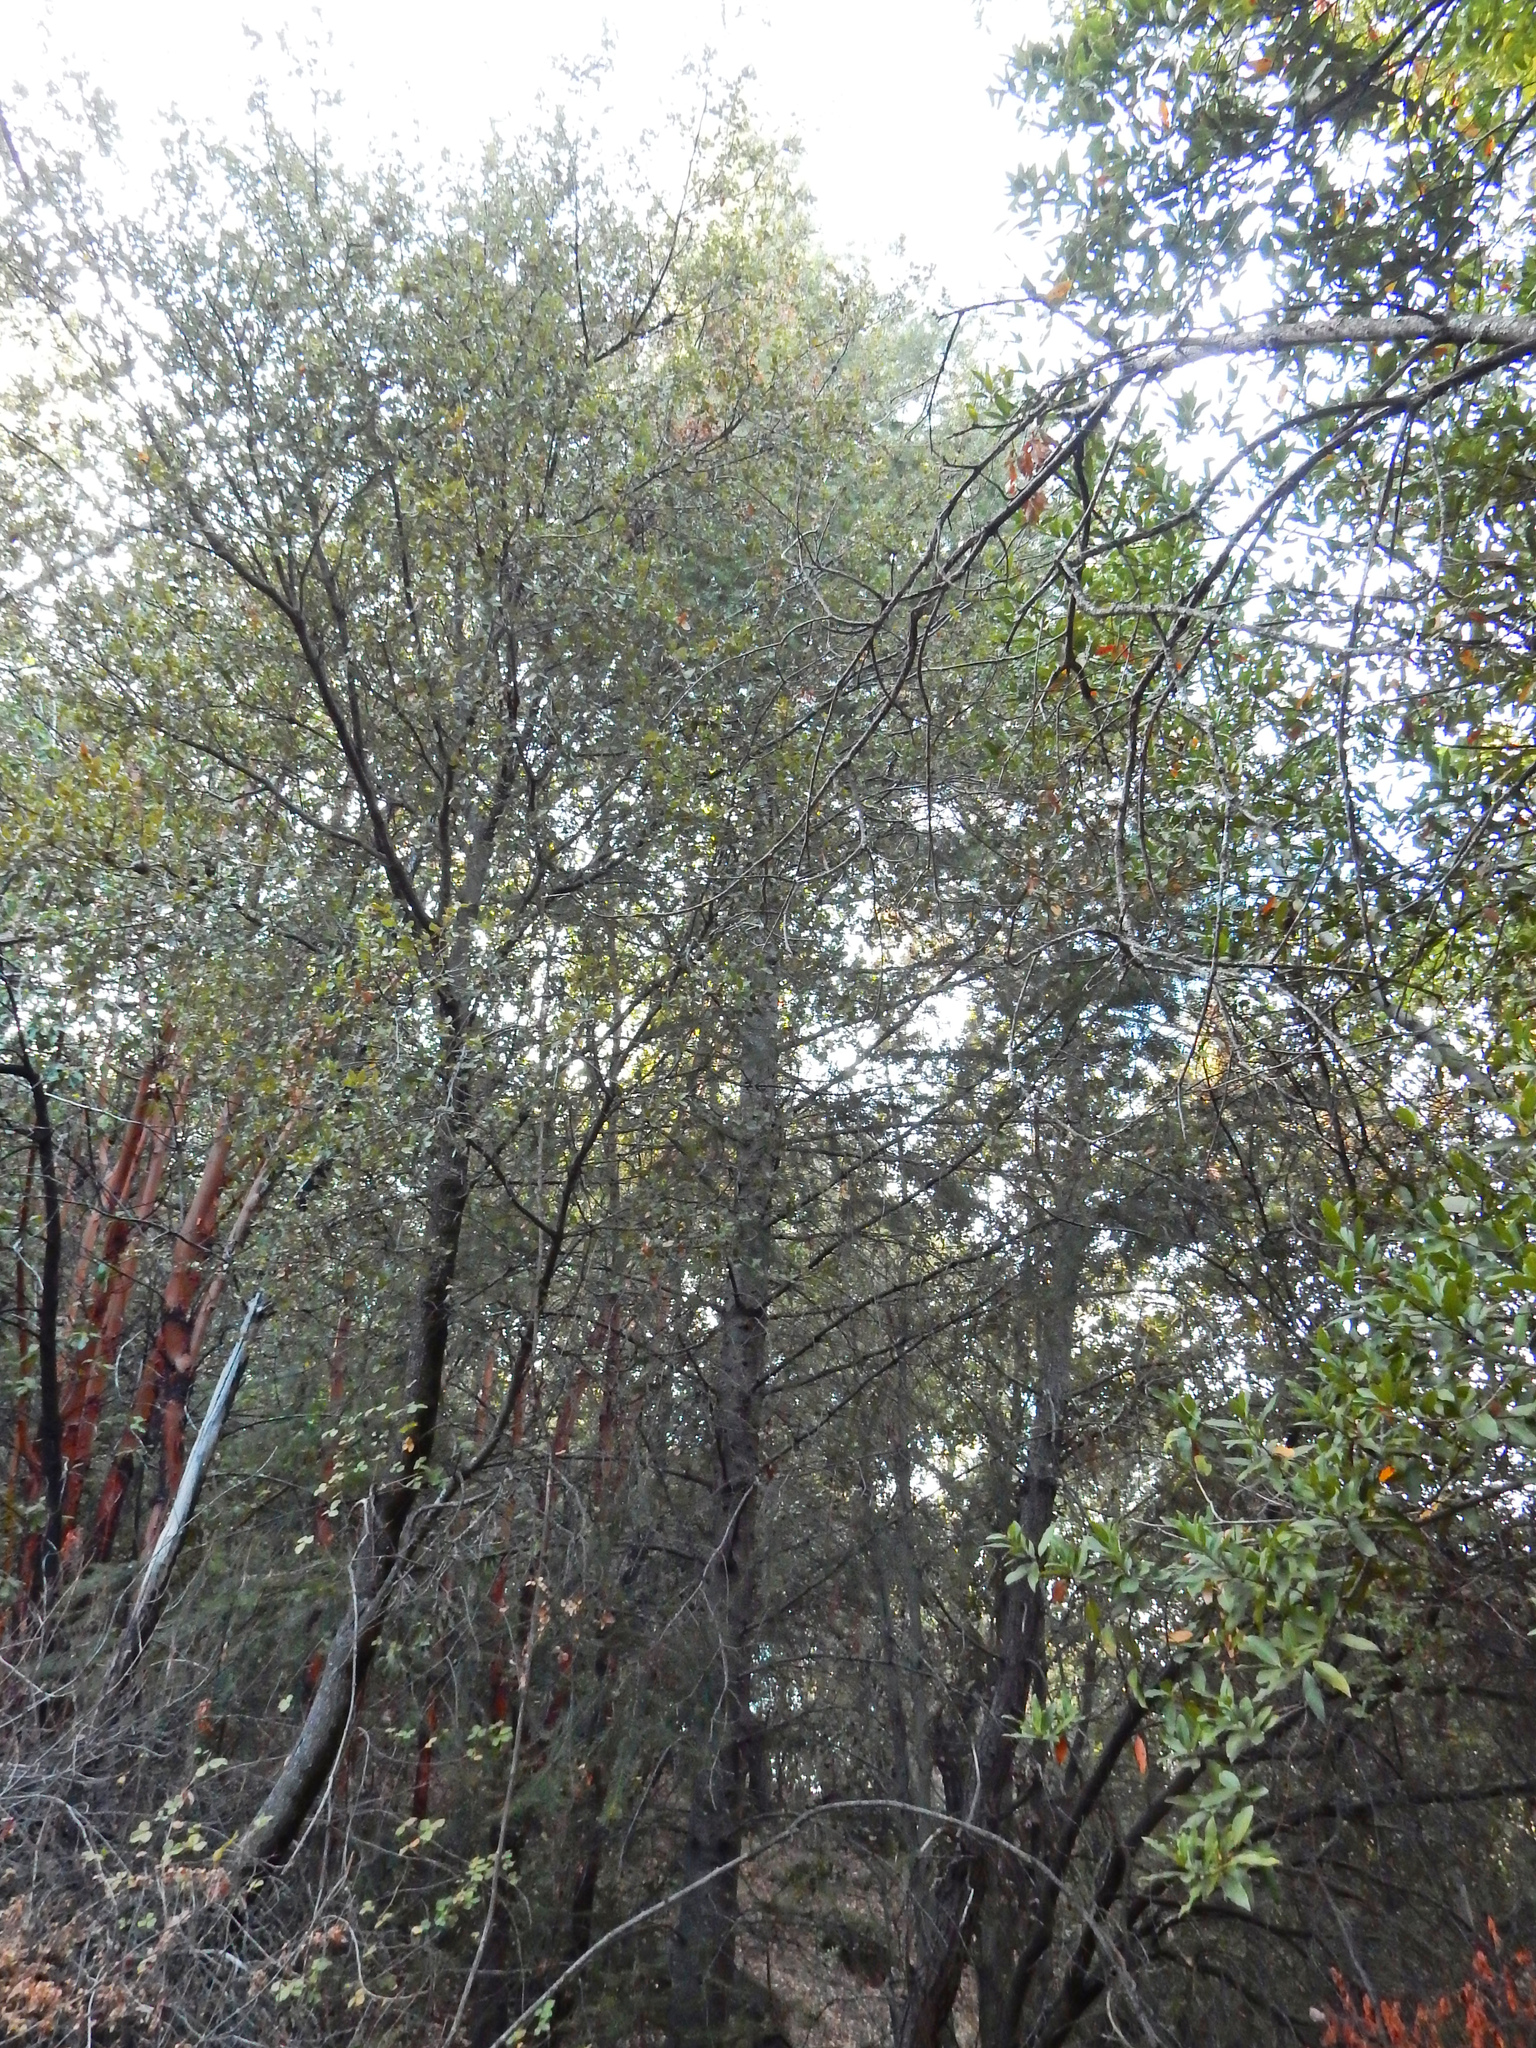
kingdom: Plantae
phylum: Tracheophyta
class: Pinopsida
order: Pinales
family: Pinaceae
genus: Abies
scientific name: Abies bracteata
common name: Bristlecone fir
